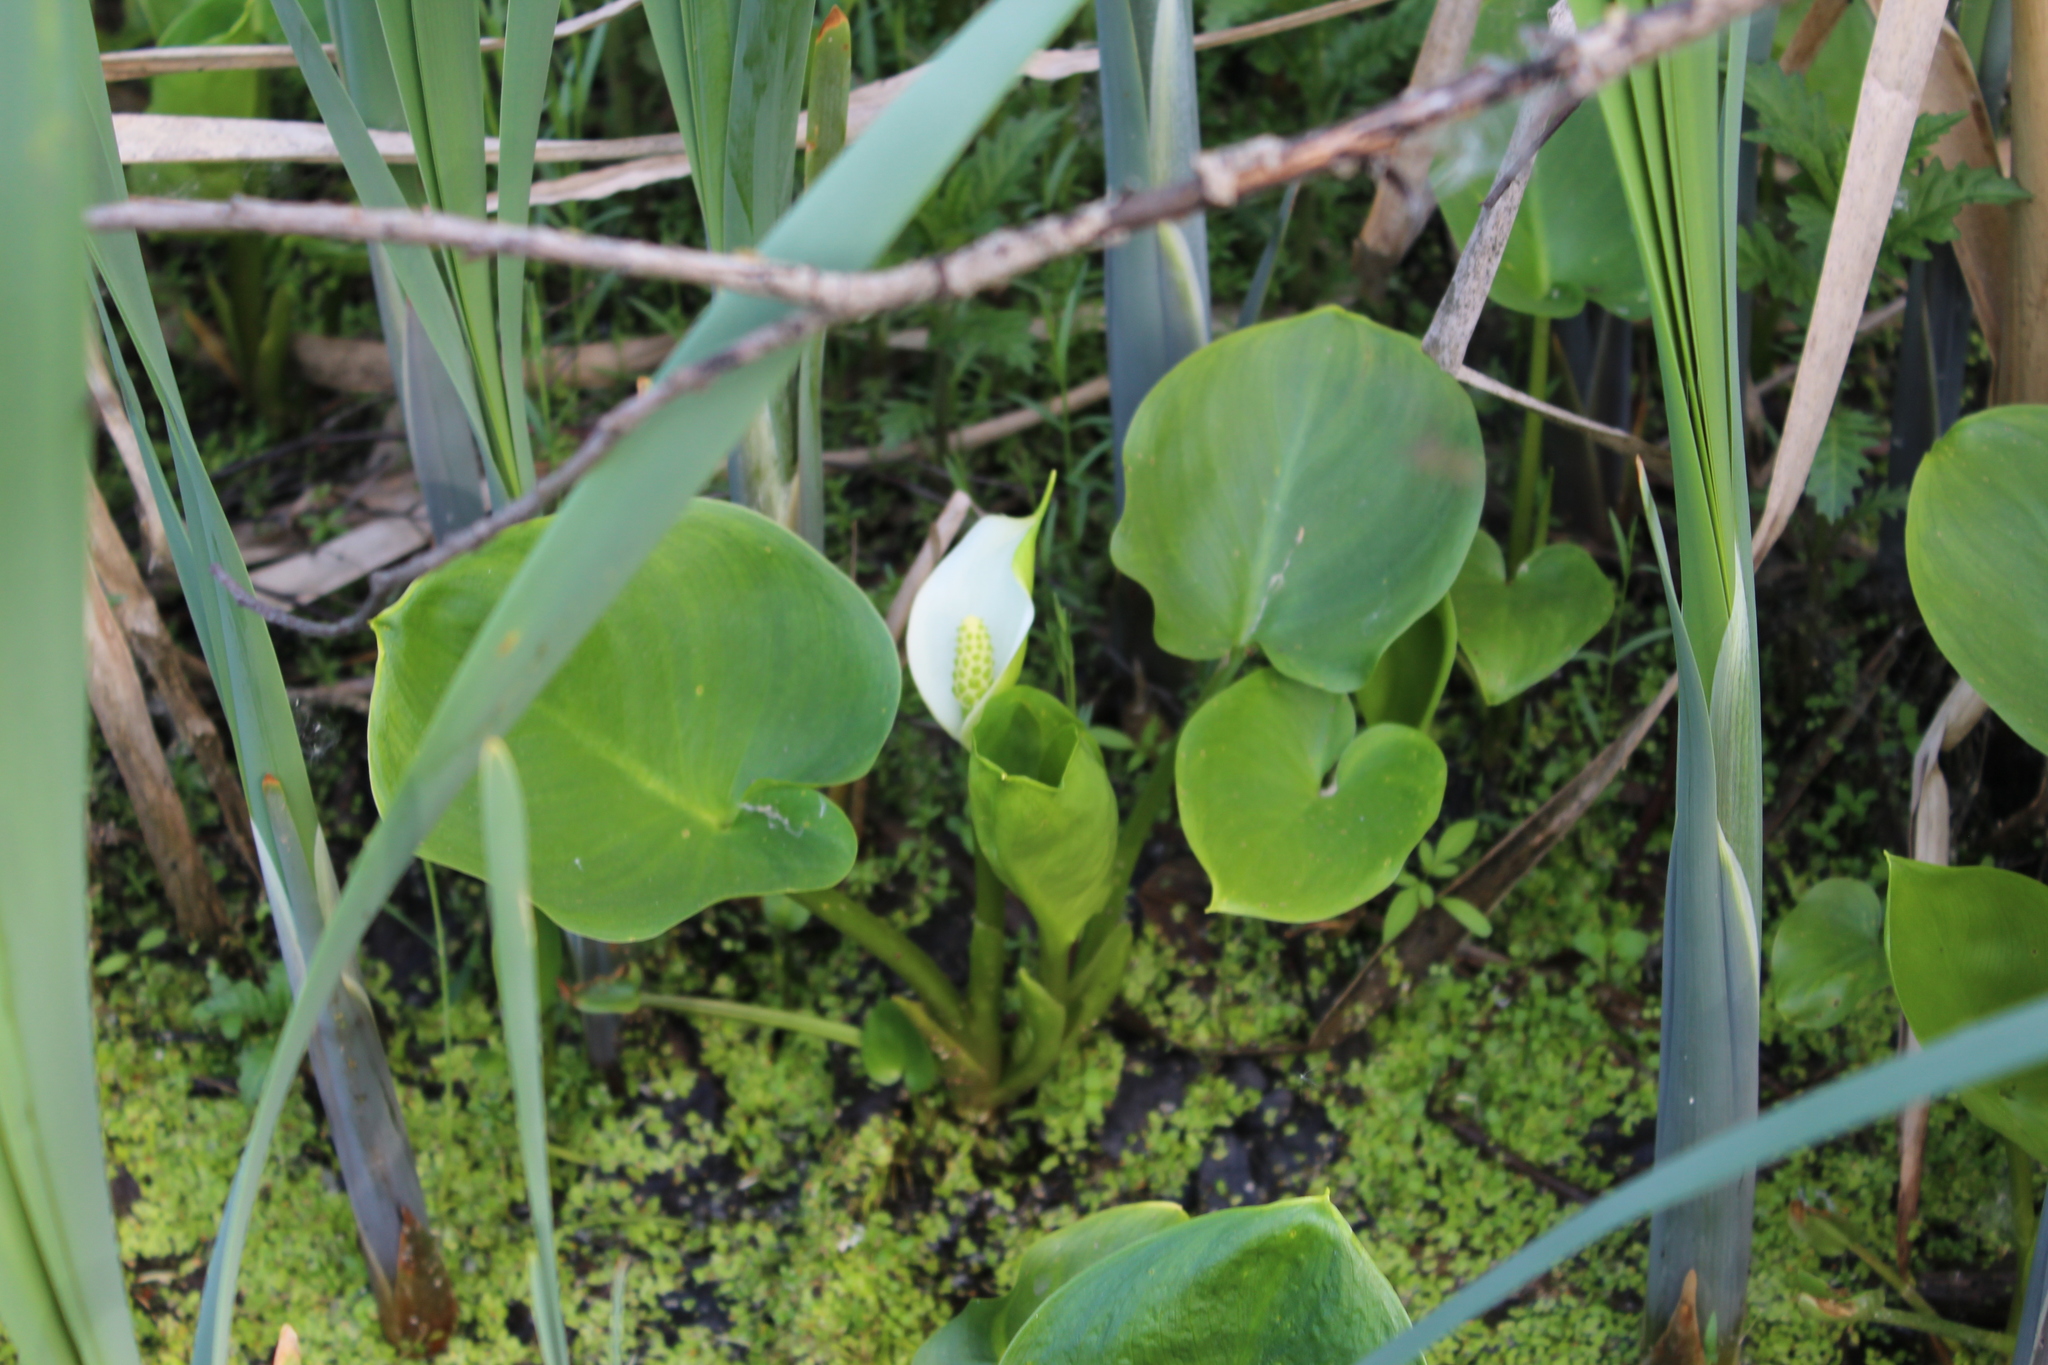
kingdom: Plantae
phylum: Tracheophyta
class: Liliopsida
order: Alismatales
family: Araceae
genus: Calla
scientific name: Calla palustris
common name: Bog arum
